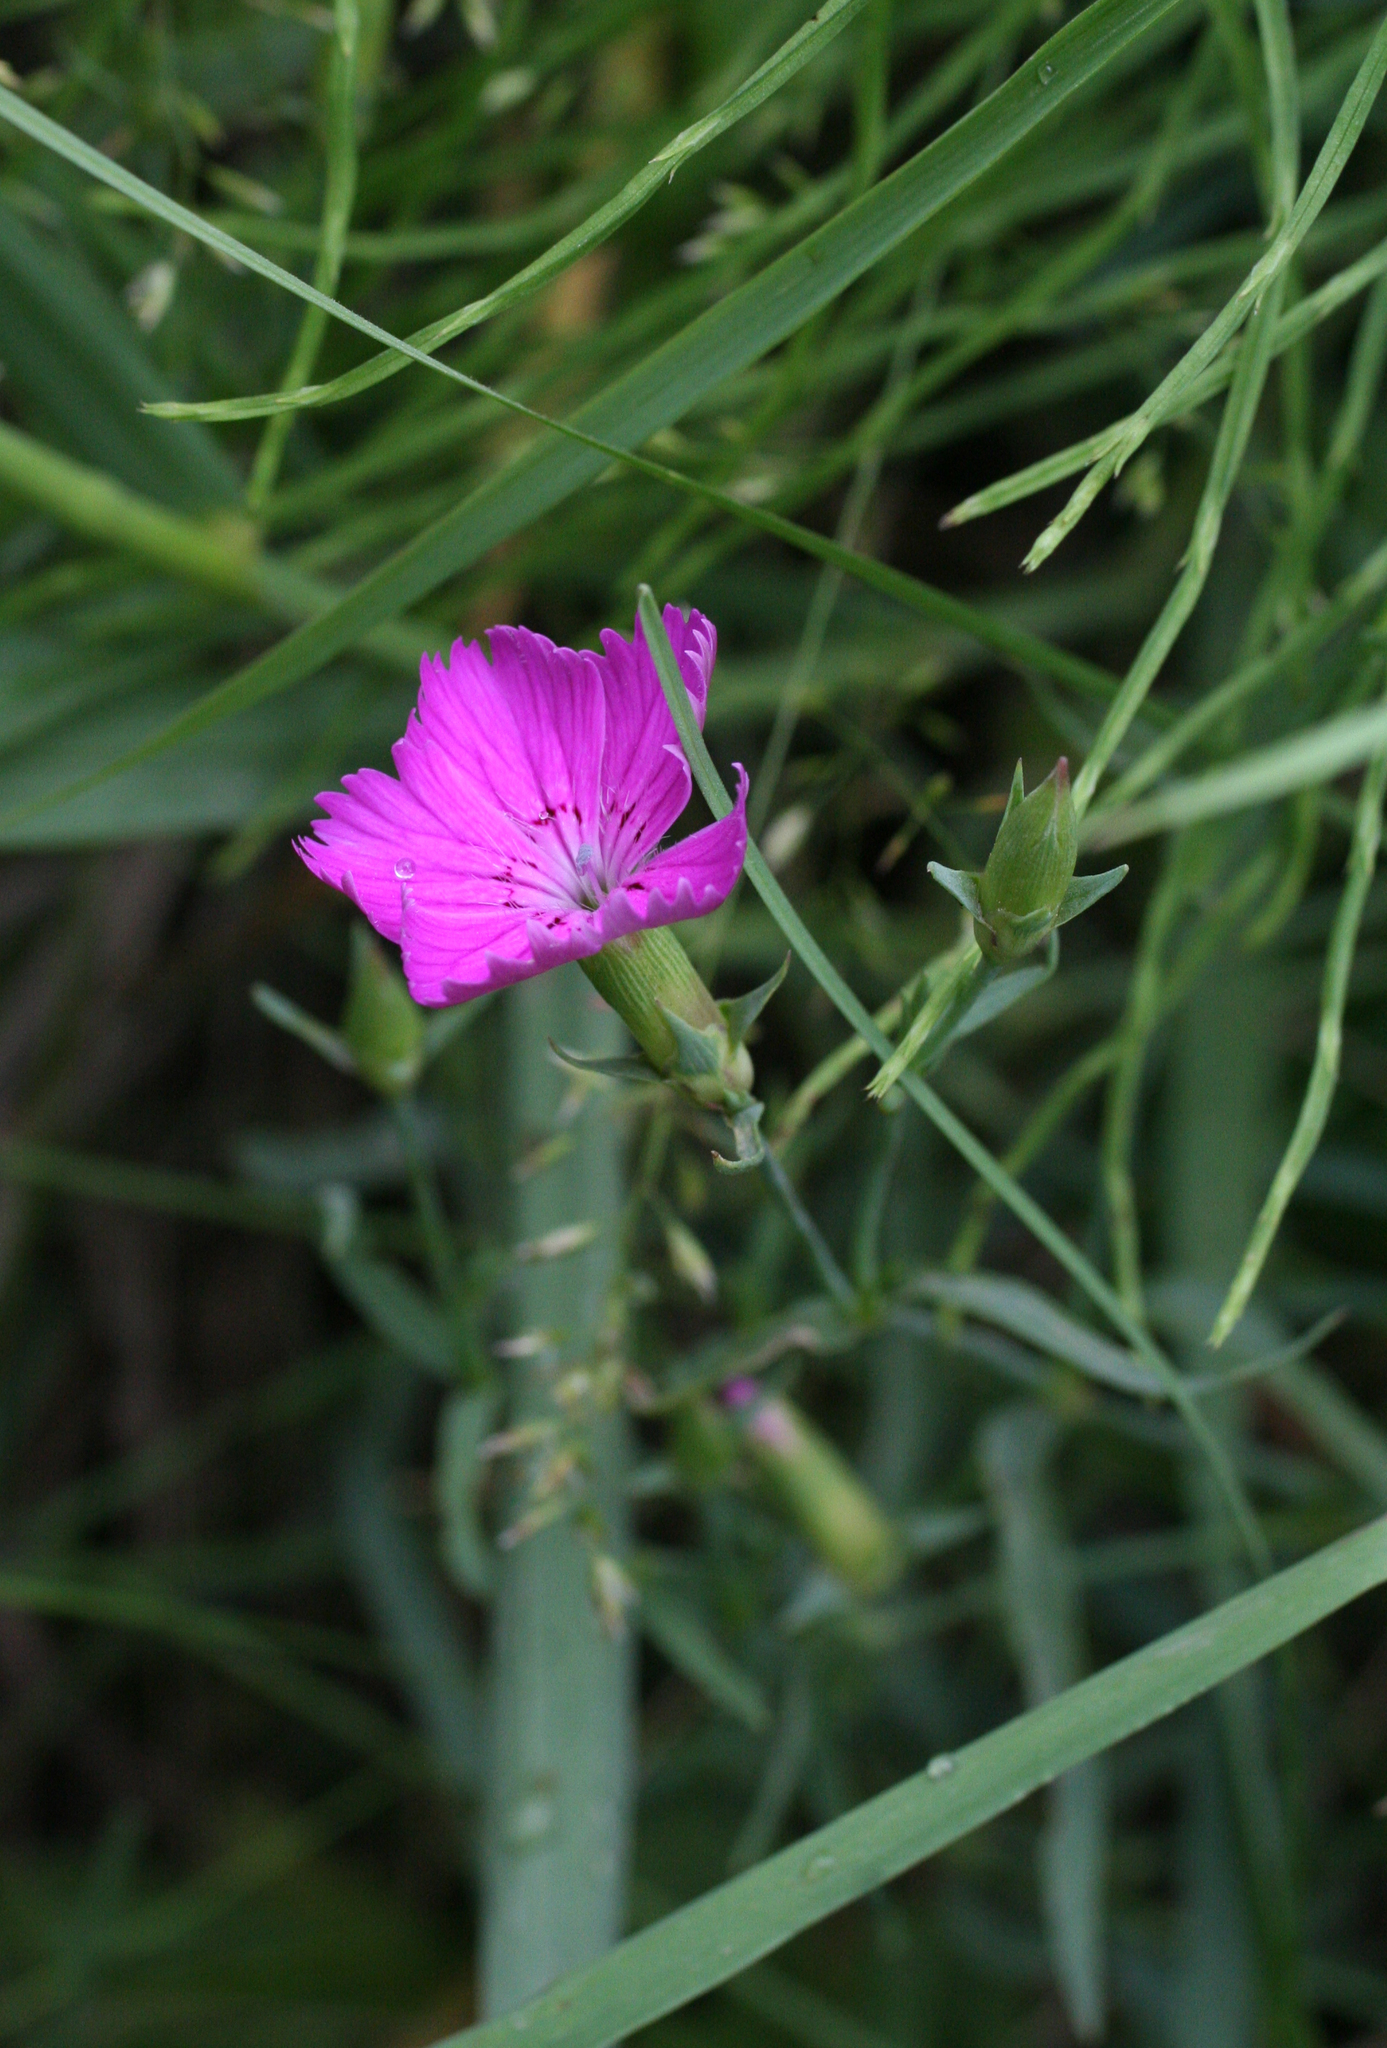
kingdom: Plantae
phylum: Tracheophyta
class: Magnoliopsida
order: Caryophyllales
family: Caryophyllaceae
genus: Dianthus
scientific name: Dianthus chinensis
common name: Rainbow pink
